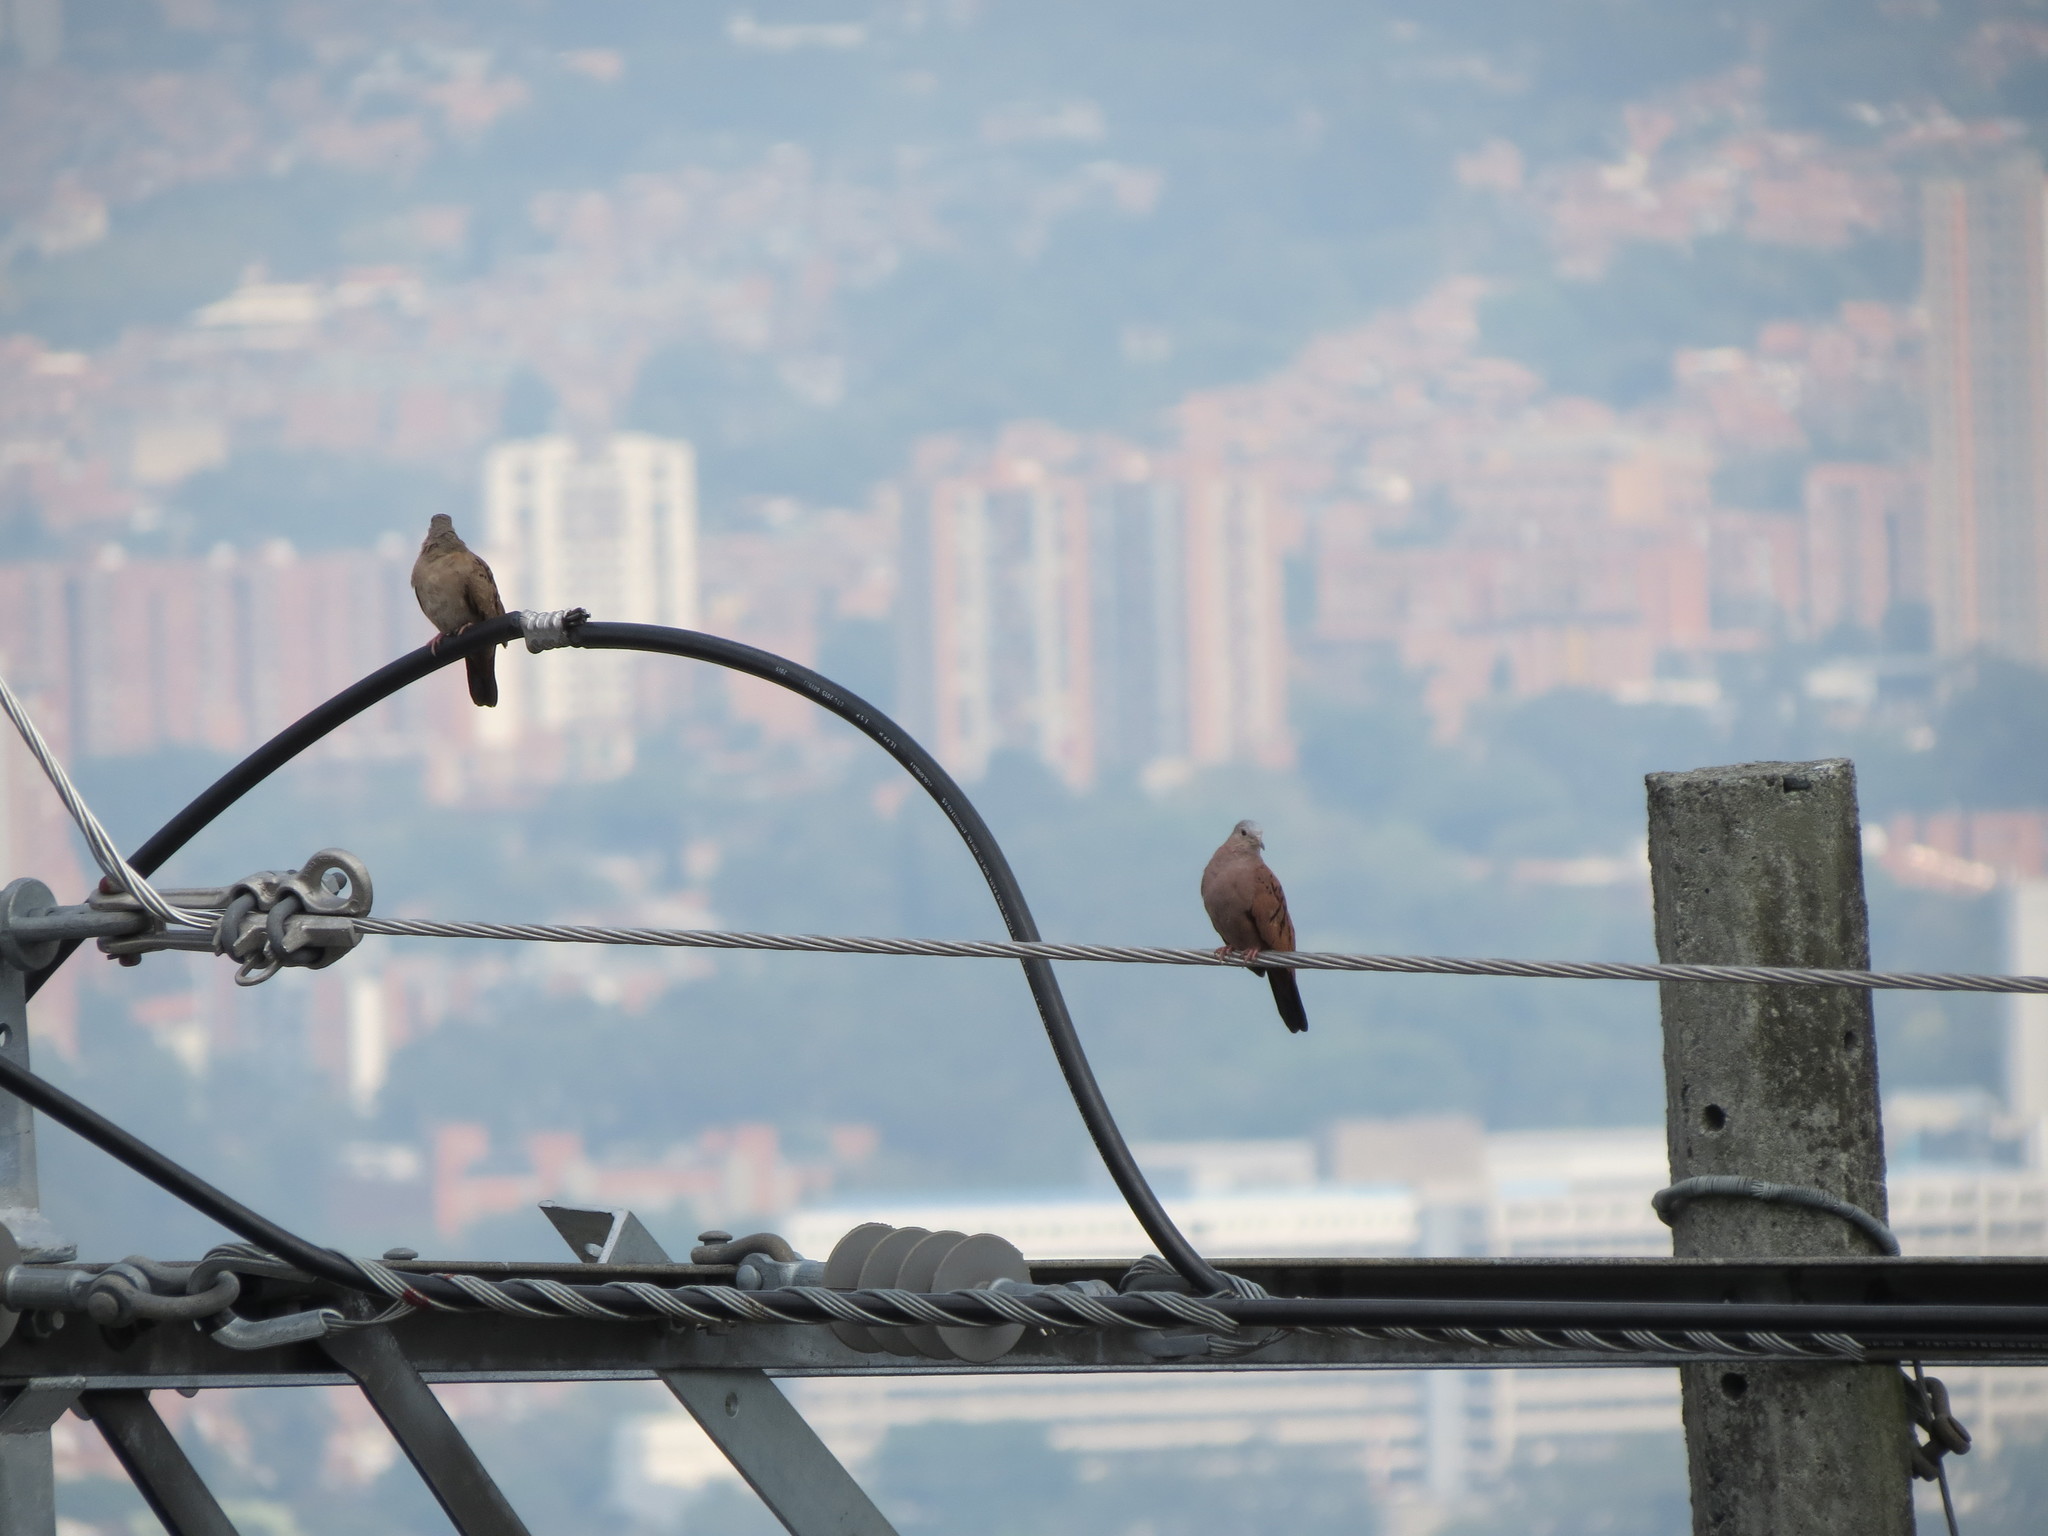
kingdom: Animalia
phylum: Chordata
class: Aves
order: Columbiformes
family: Columbidae
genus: Columbina
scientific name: Columbina talpacoti
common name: Ruddy ground dove
